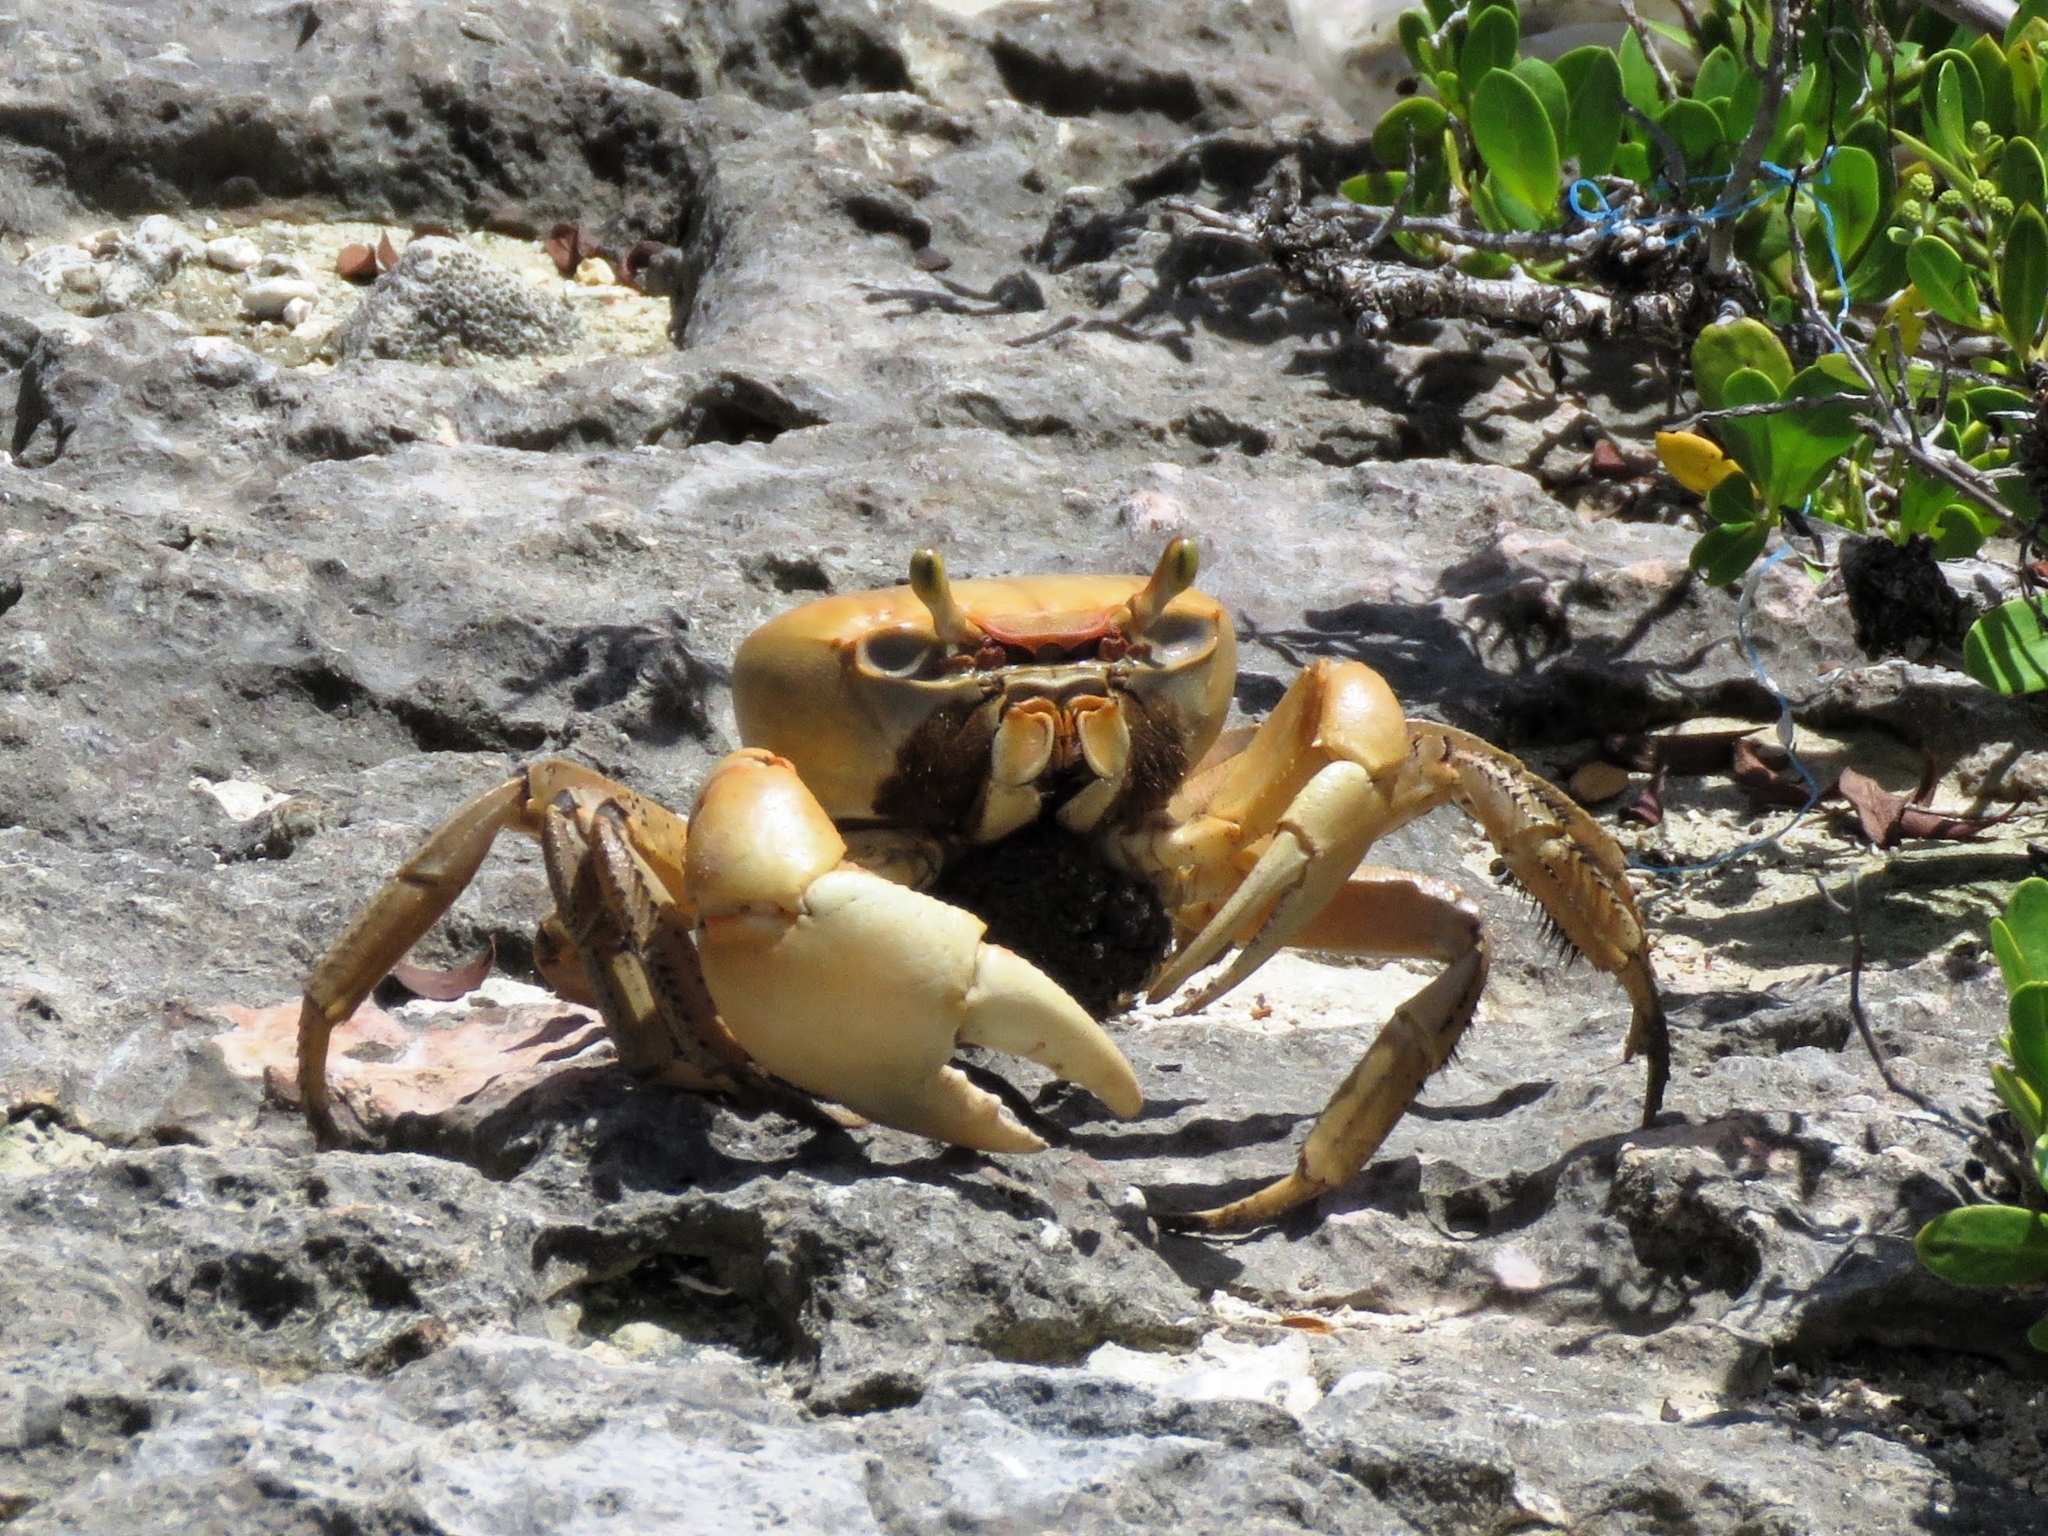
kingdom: Animalia
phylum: Arthropoda
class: Malacostraca
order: Decapoda
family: Gecarcinidae
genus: Cardisoma
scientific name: Cardisoma guanhumi
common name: Great land crab
